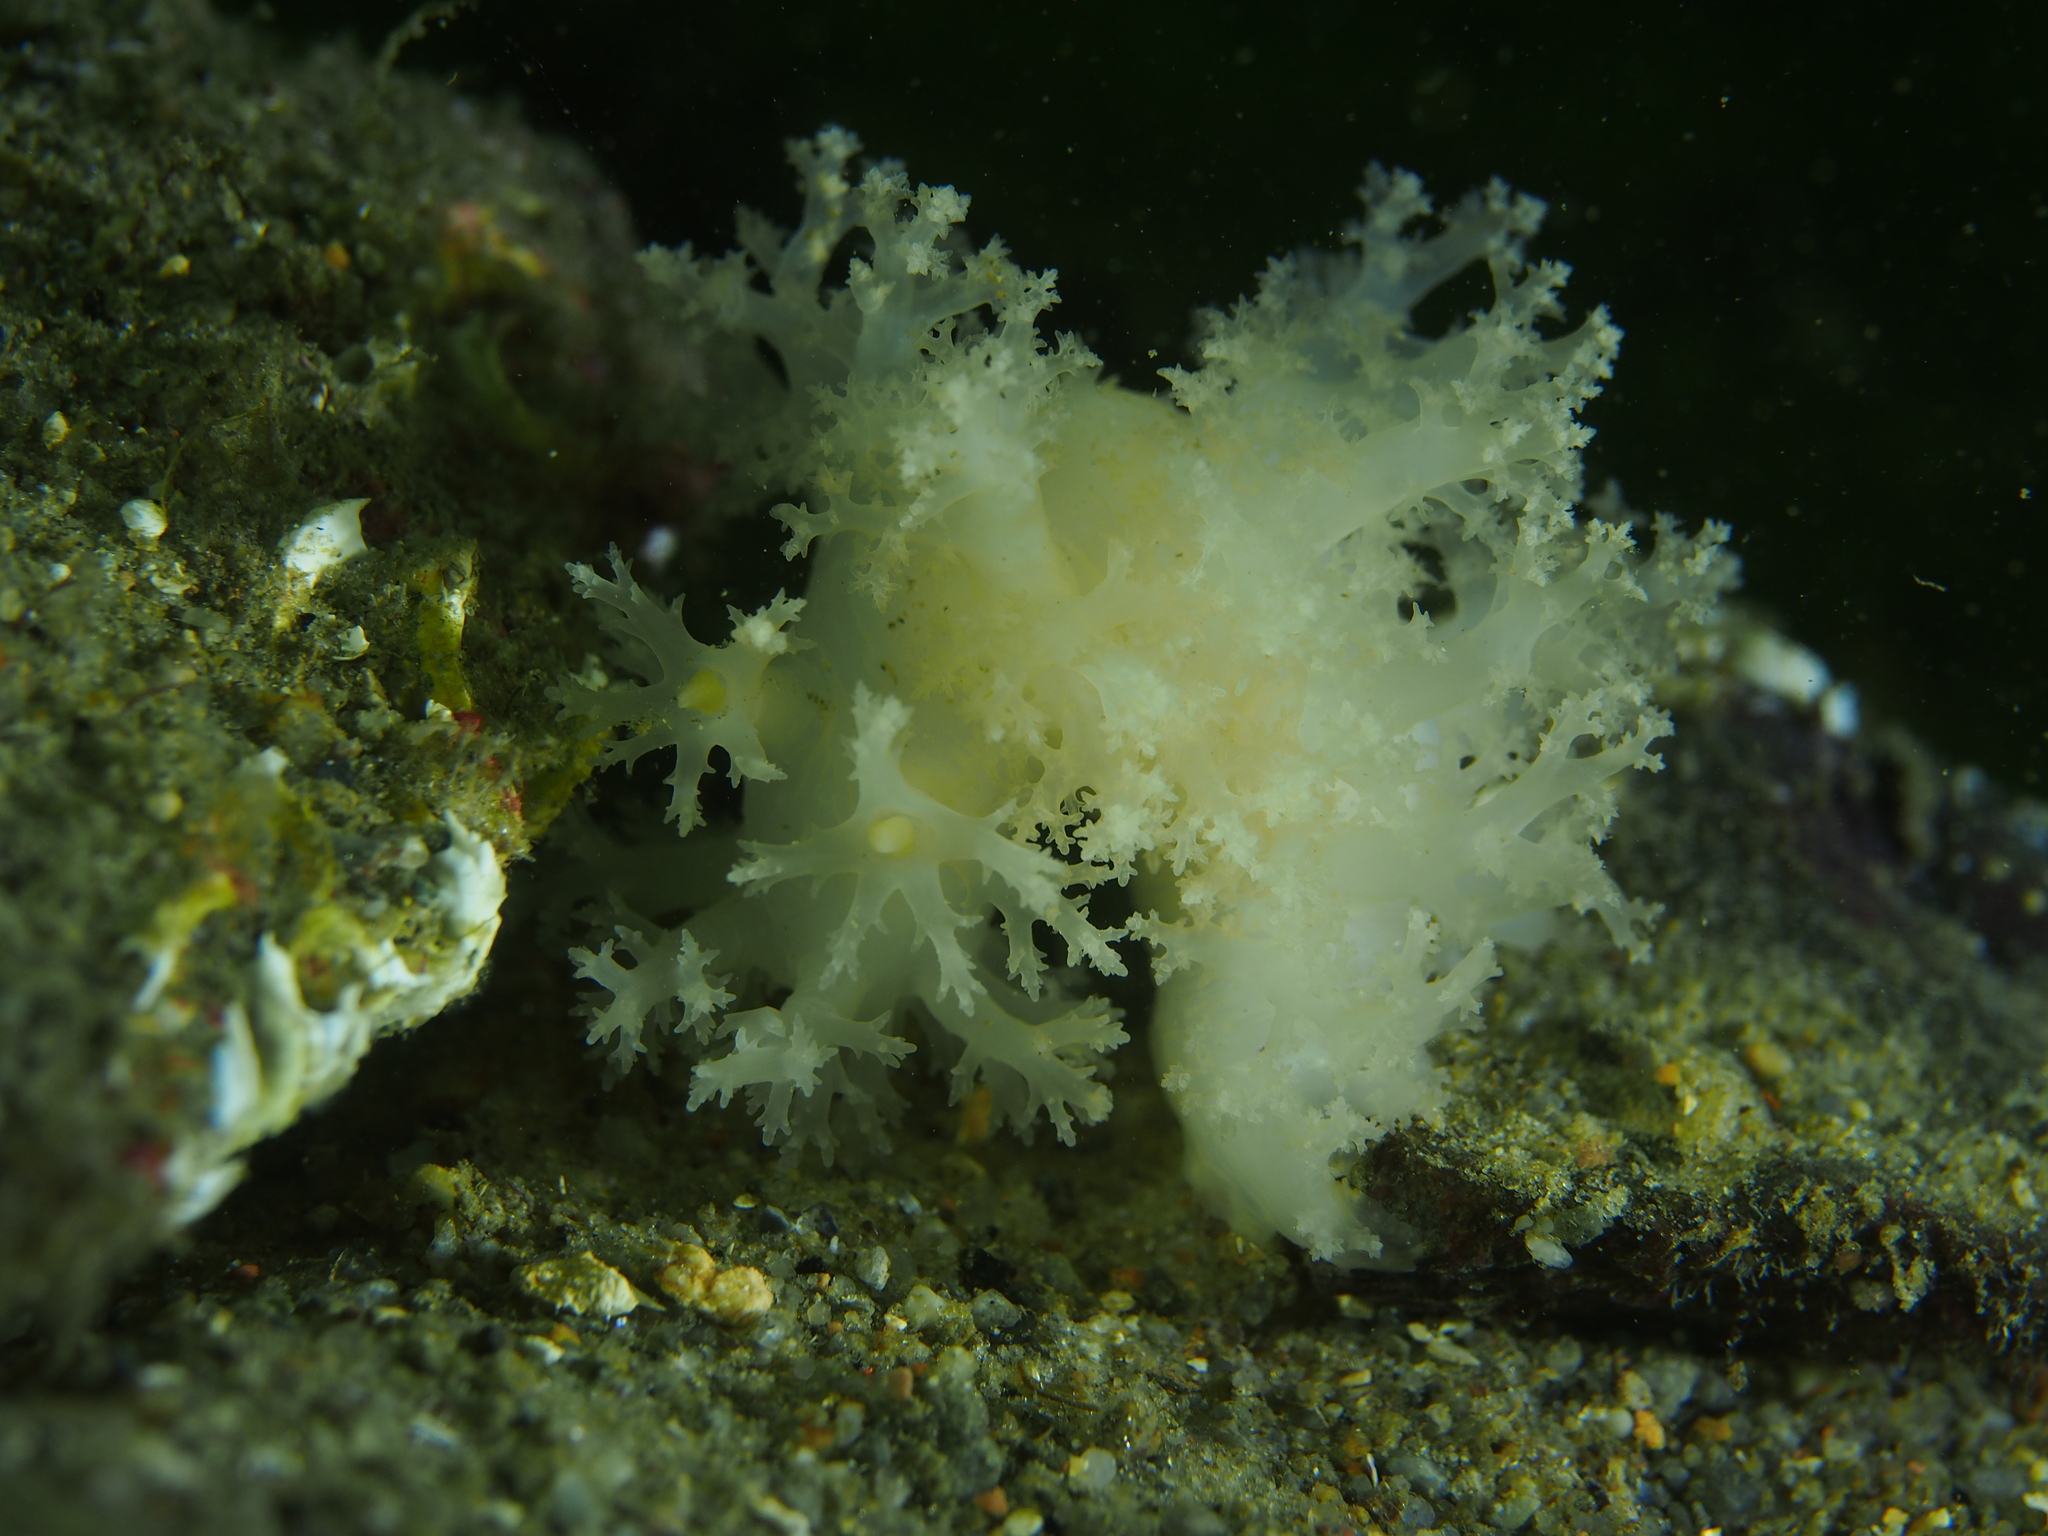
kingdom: Animalia
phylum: Mollusca
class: Gastropoda
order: Nudibranchia
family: Dendronotidae
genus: Dendronotus
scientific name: Dendronotus lacteus
